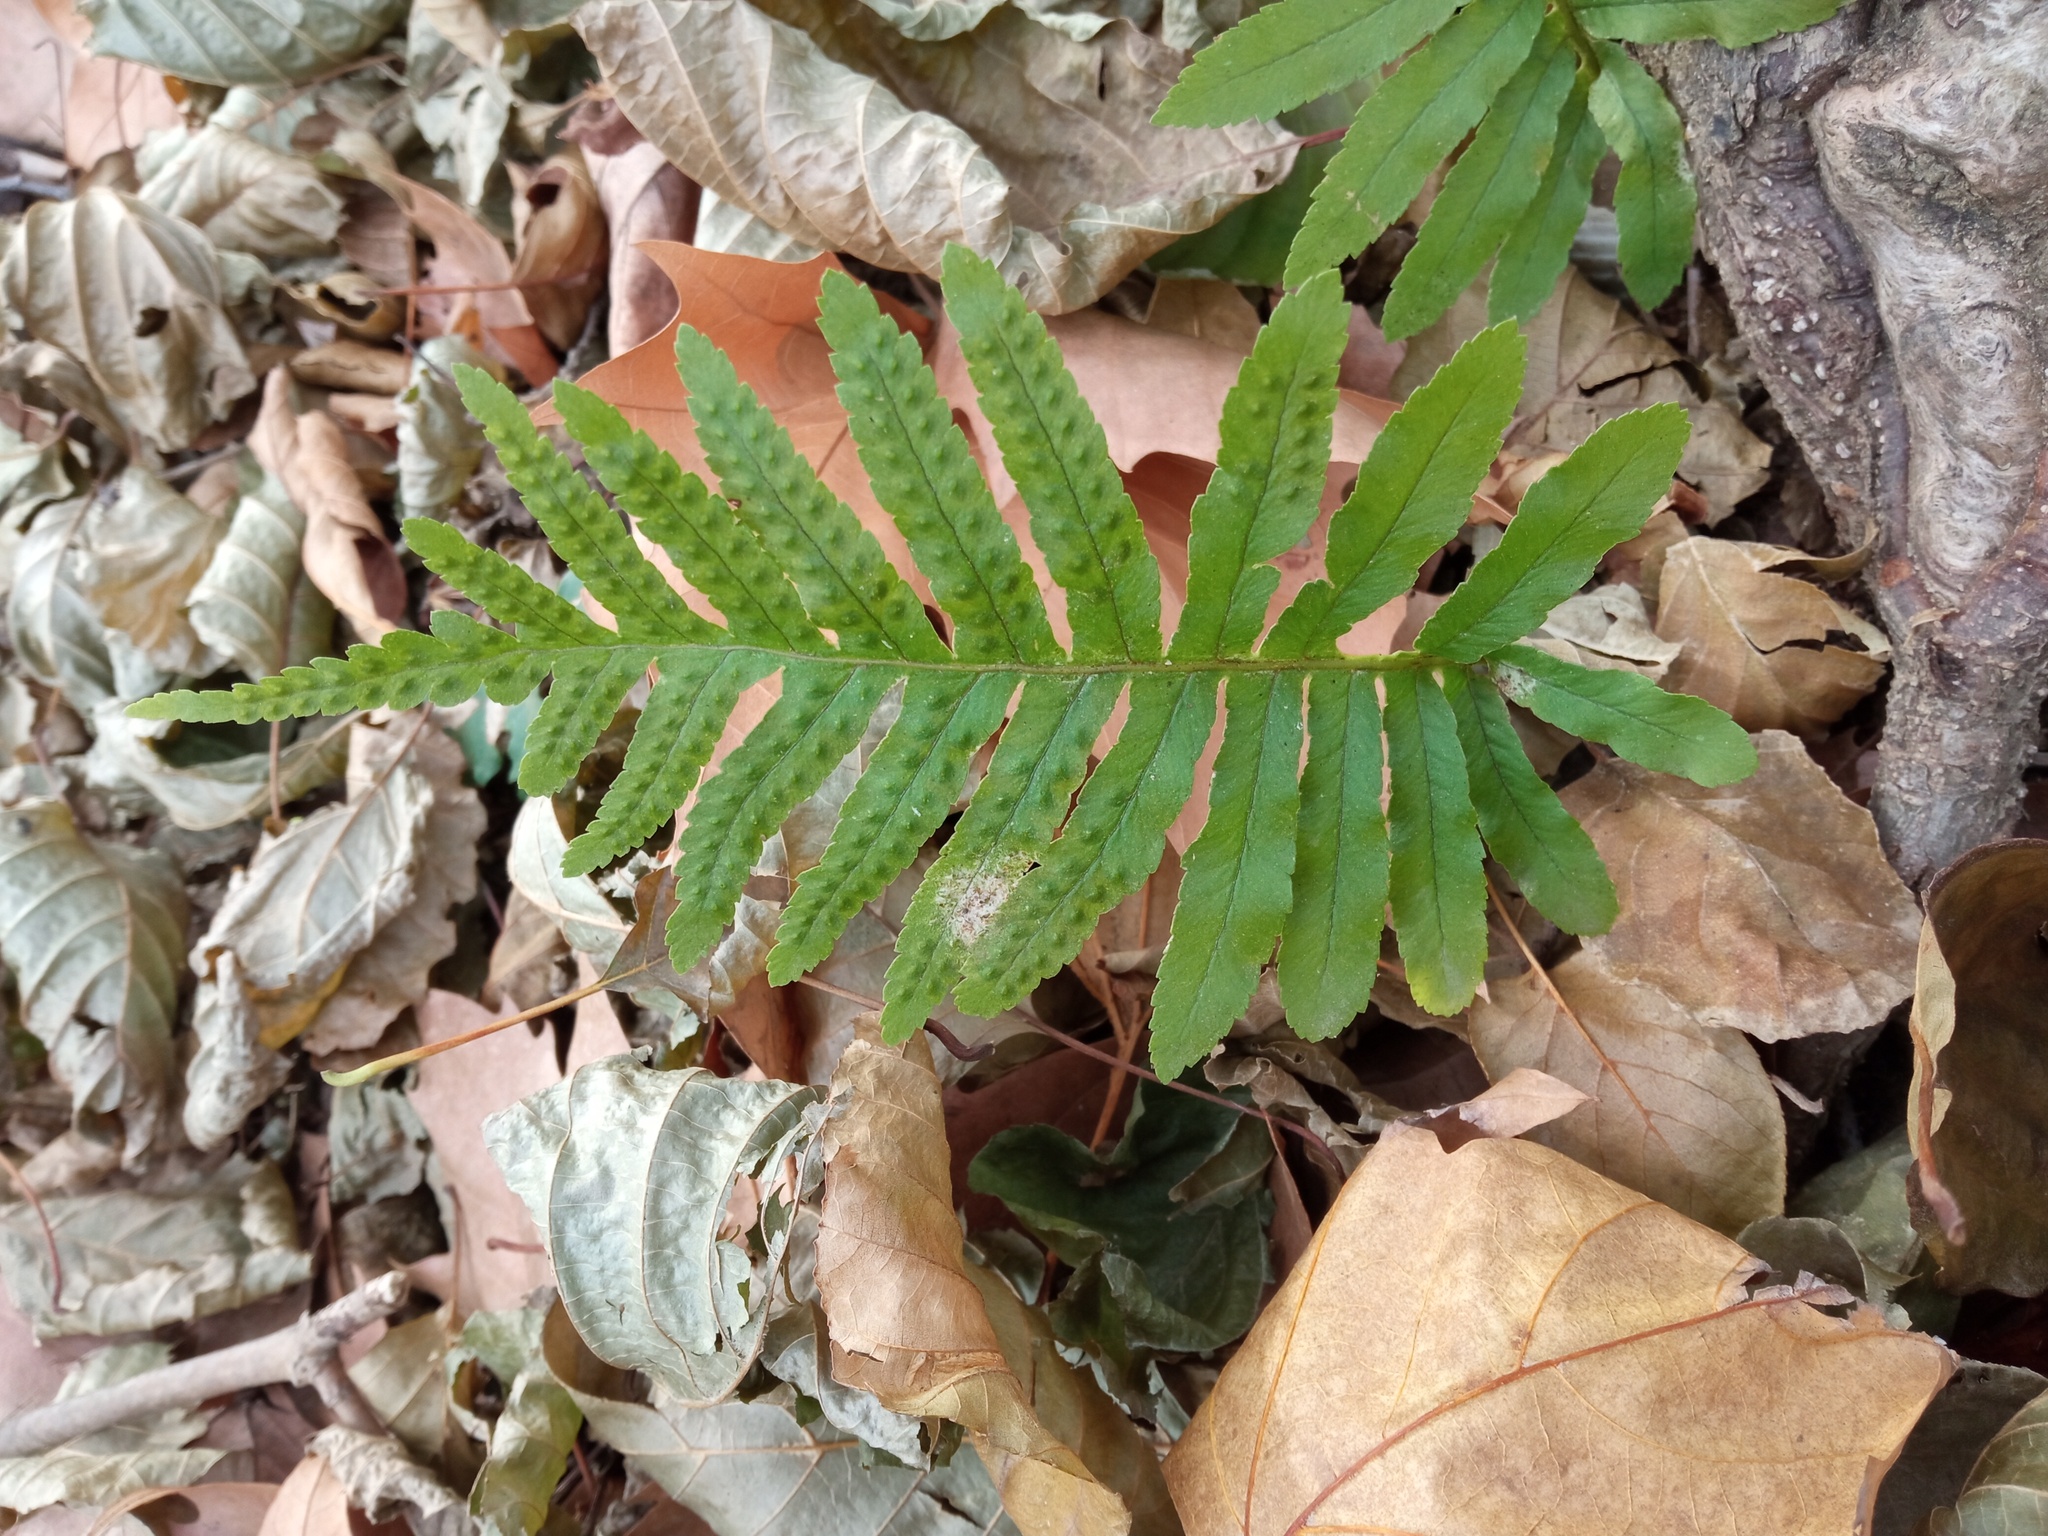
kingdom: Plantae
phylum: Tracheophyta
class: Polypodiopsida
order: Polypodiales
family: Polypodiaceae
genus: Polypodium
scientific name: Polypodium cambricum
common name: Southern polypody
